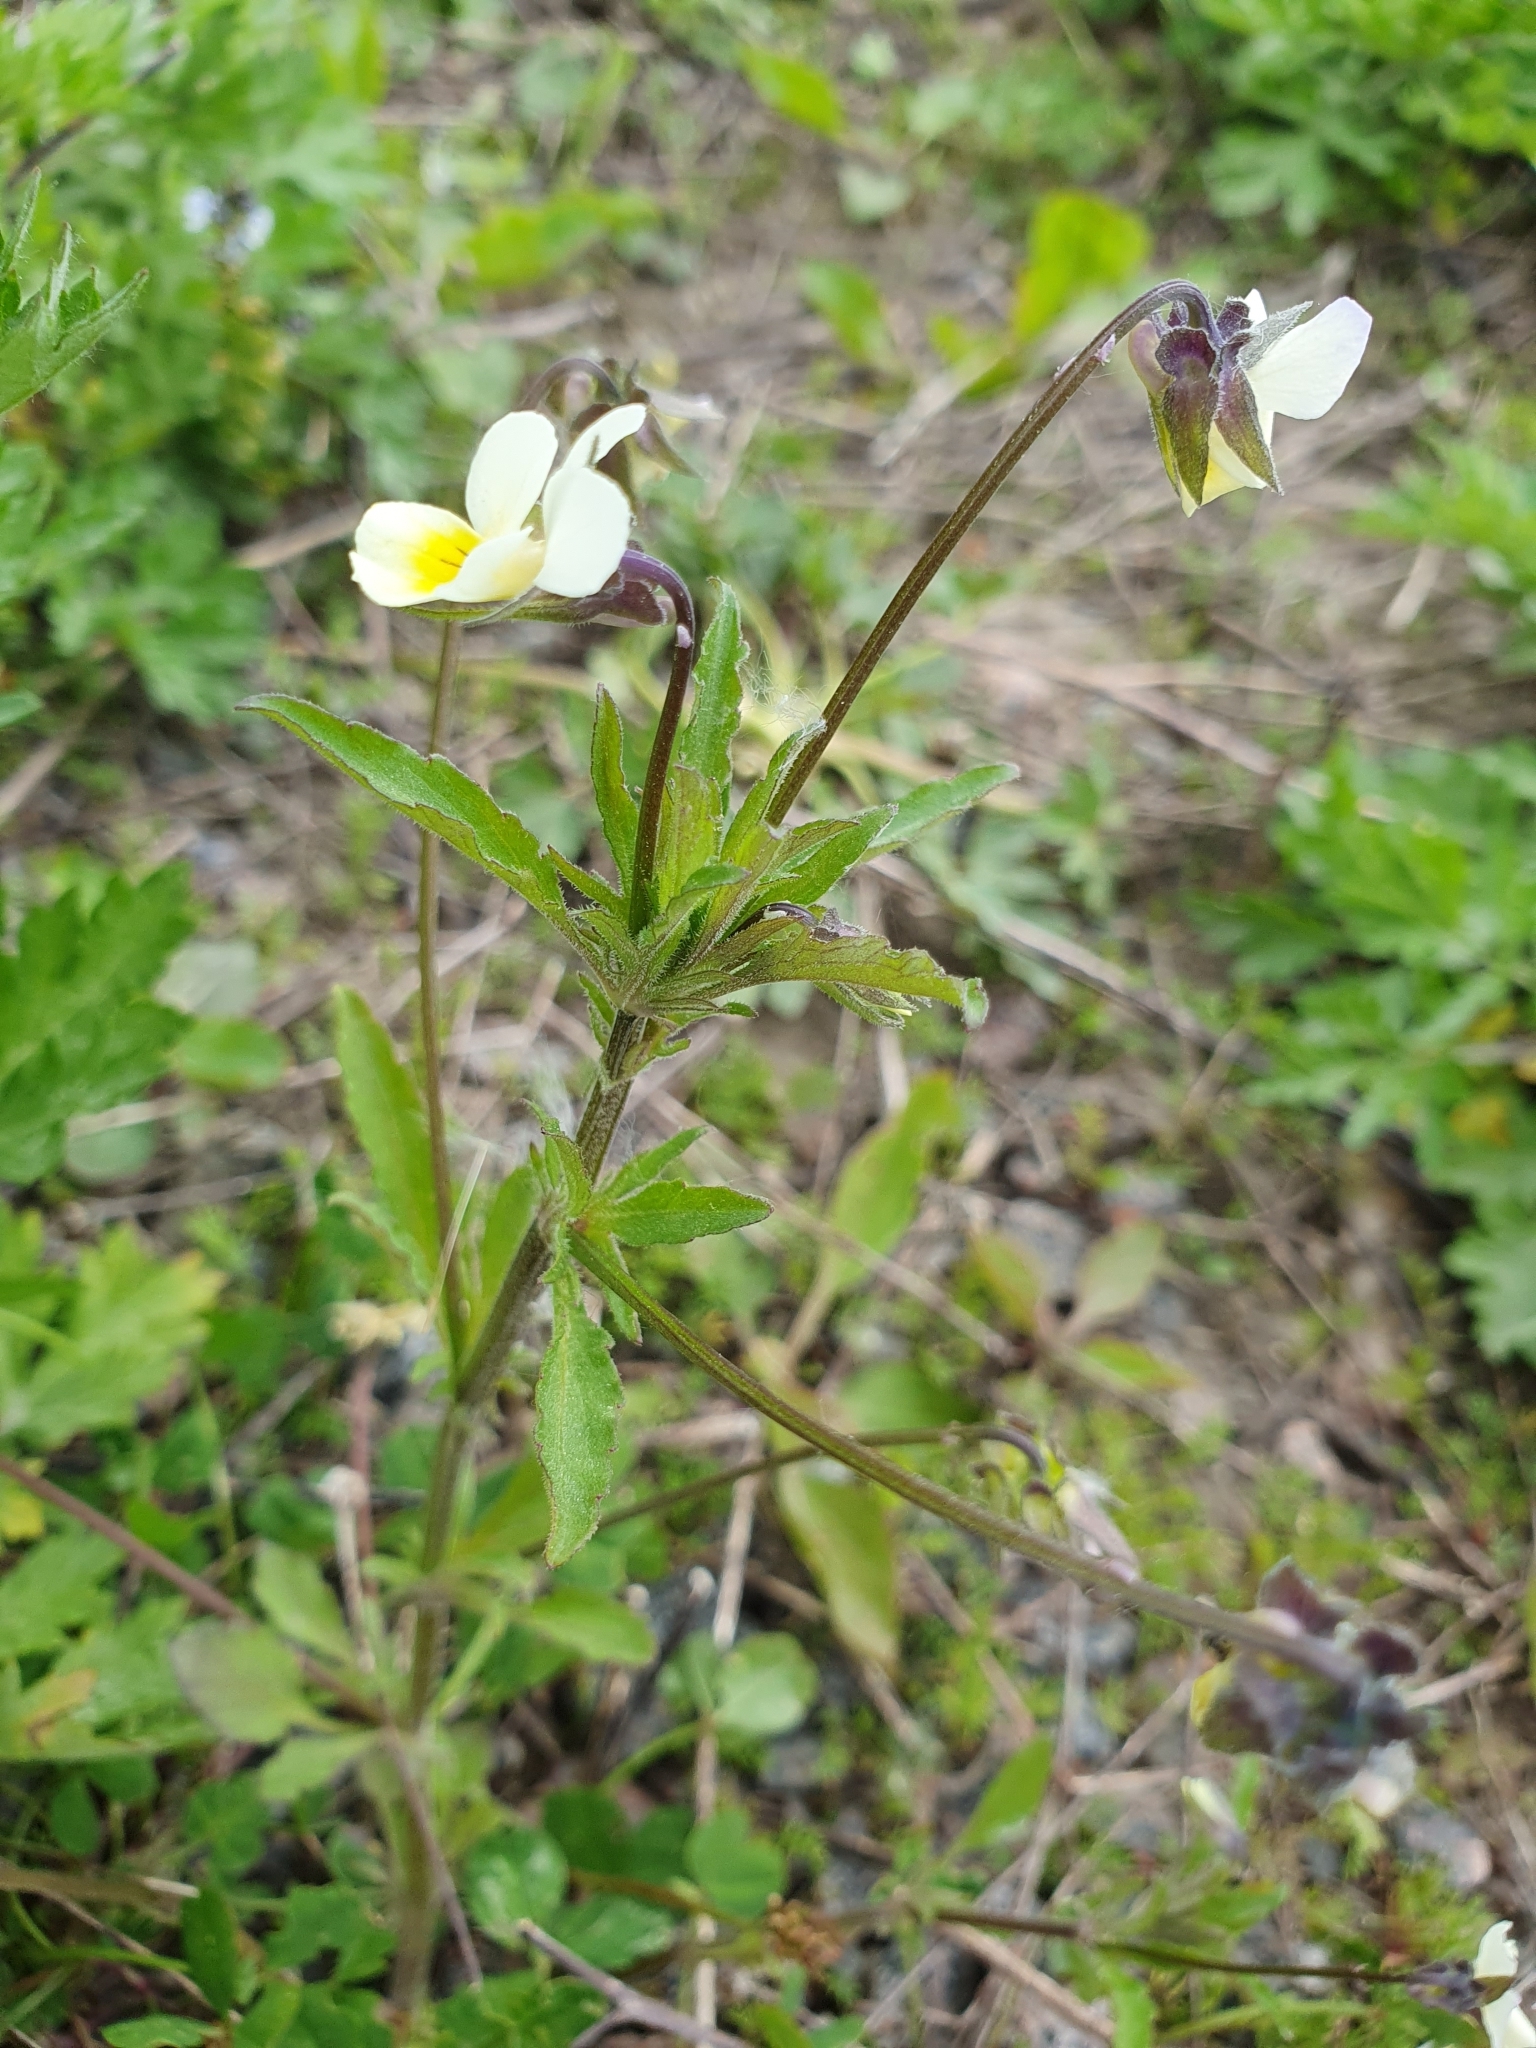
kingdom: Plantae
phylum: Tracheophyta
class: Magnoliopsida
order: Malpighiales
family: Violaceae
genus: Viola
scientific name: Viola arvensis
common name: Field pansy
